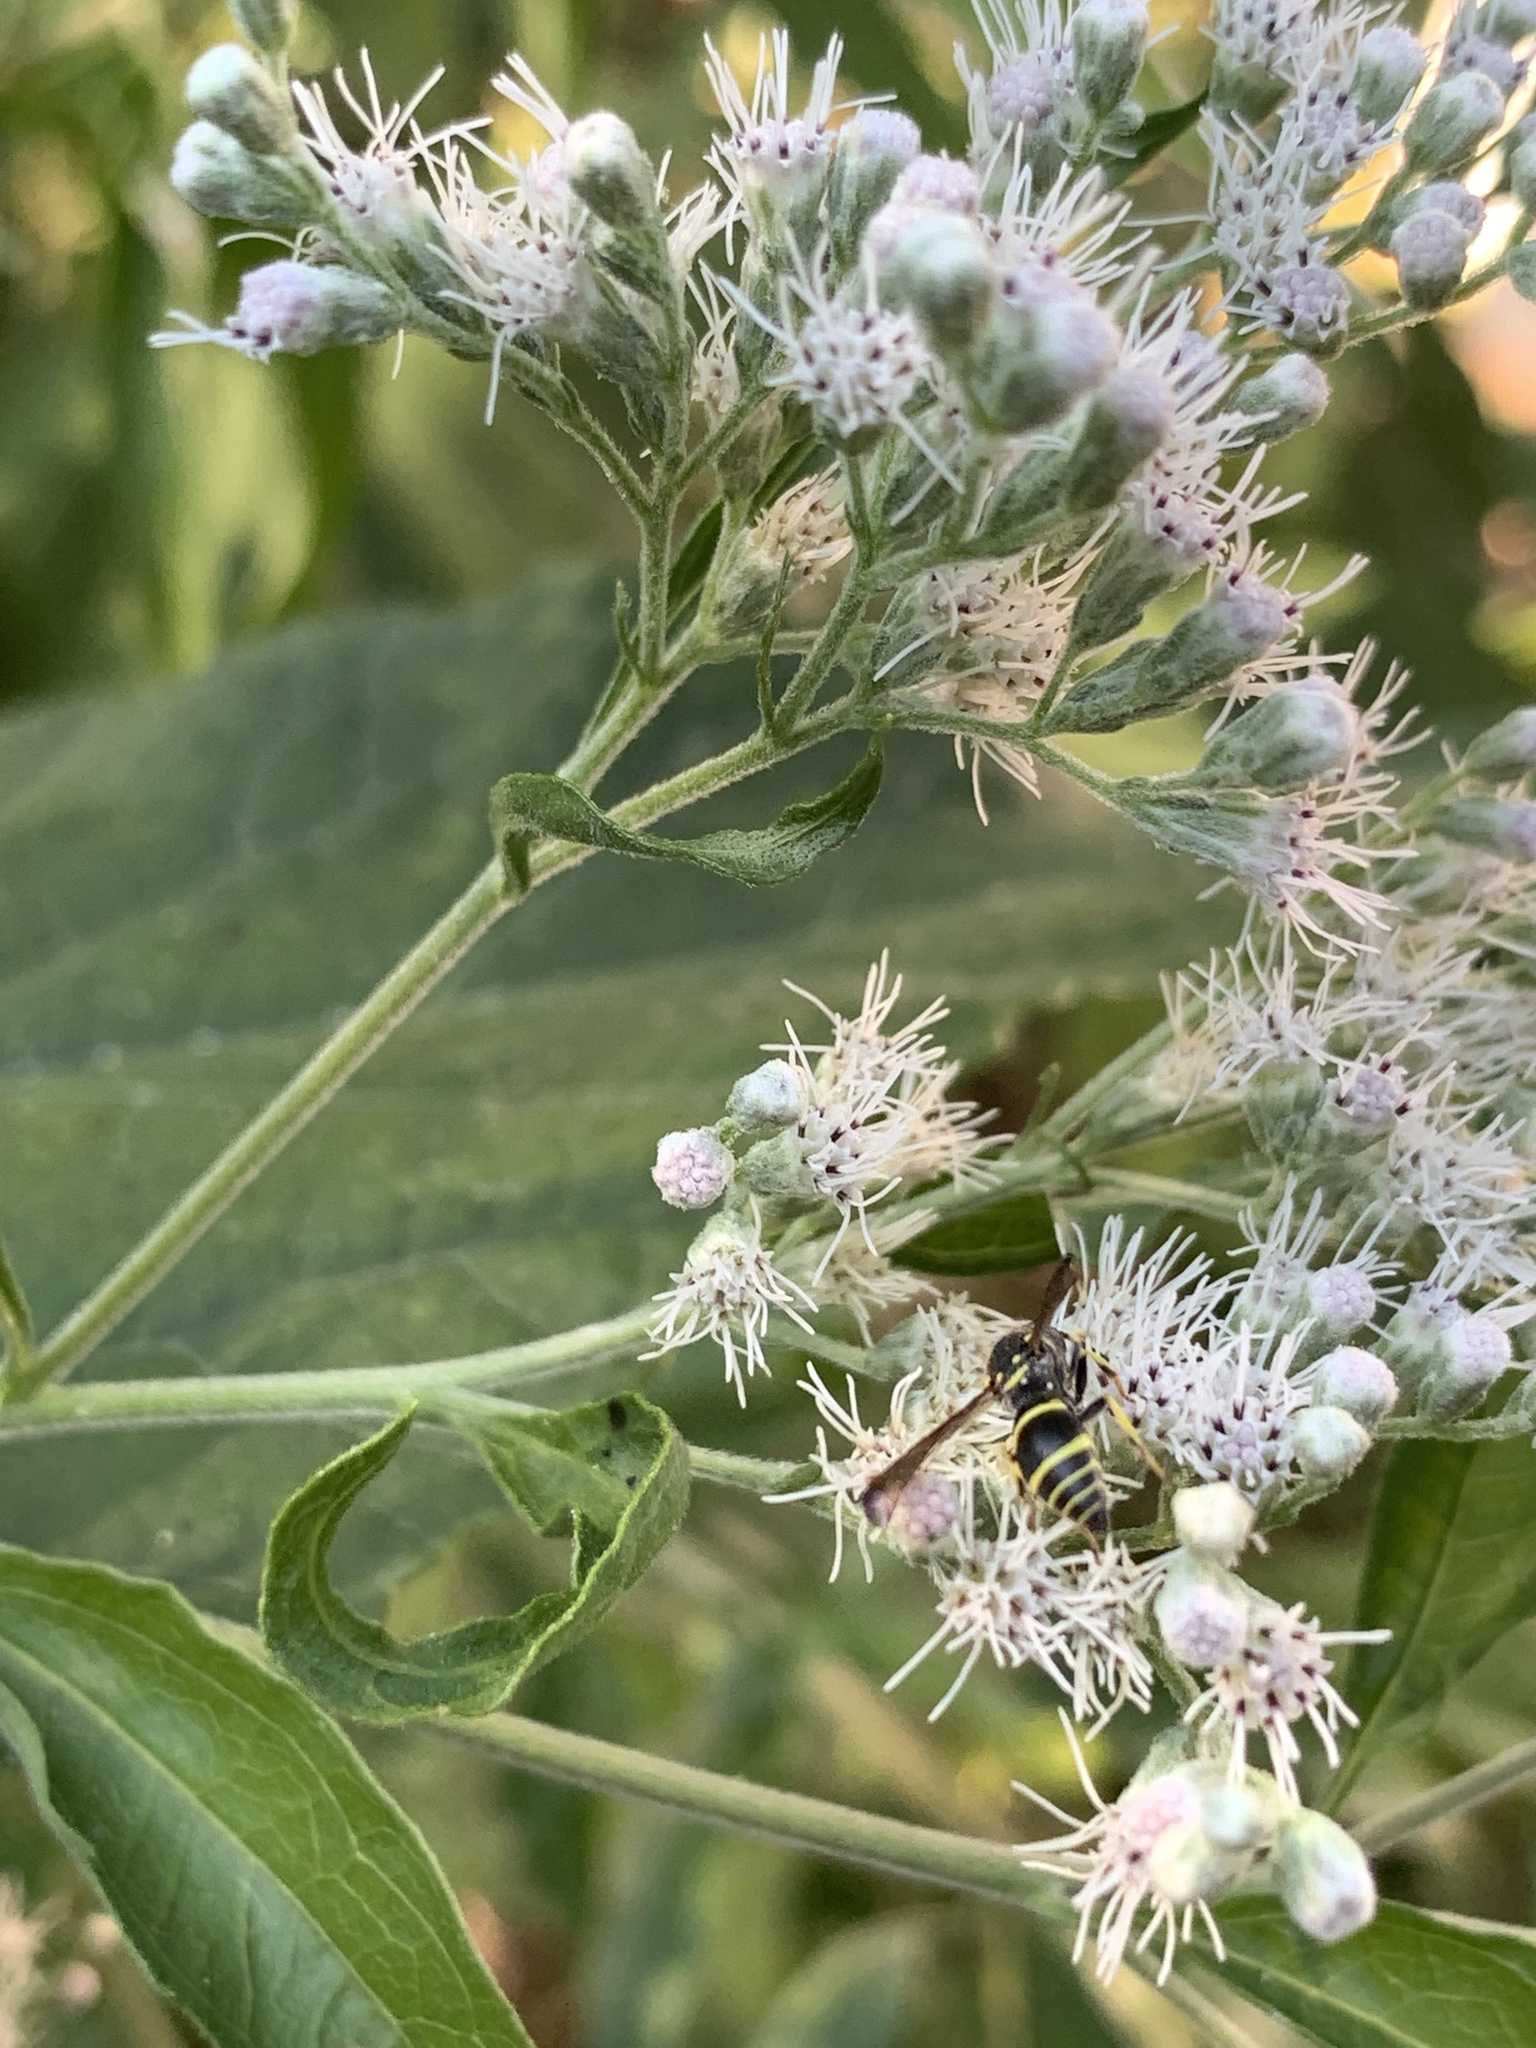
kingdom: Animalia
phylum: Arthropoda
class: Insecta
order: Hymenoptera
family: Vespidae
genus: Ancistrocerus
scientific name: Ancistrocerus adiabatus
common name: Bramble mason wasp
